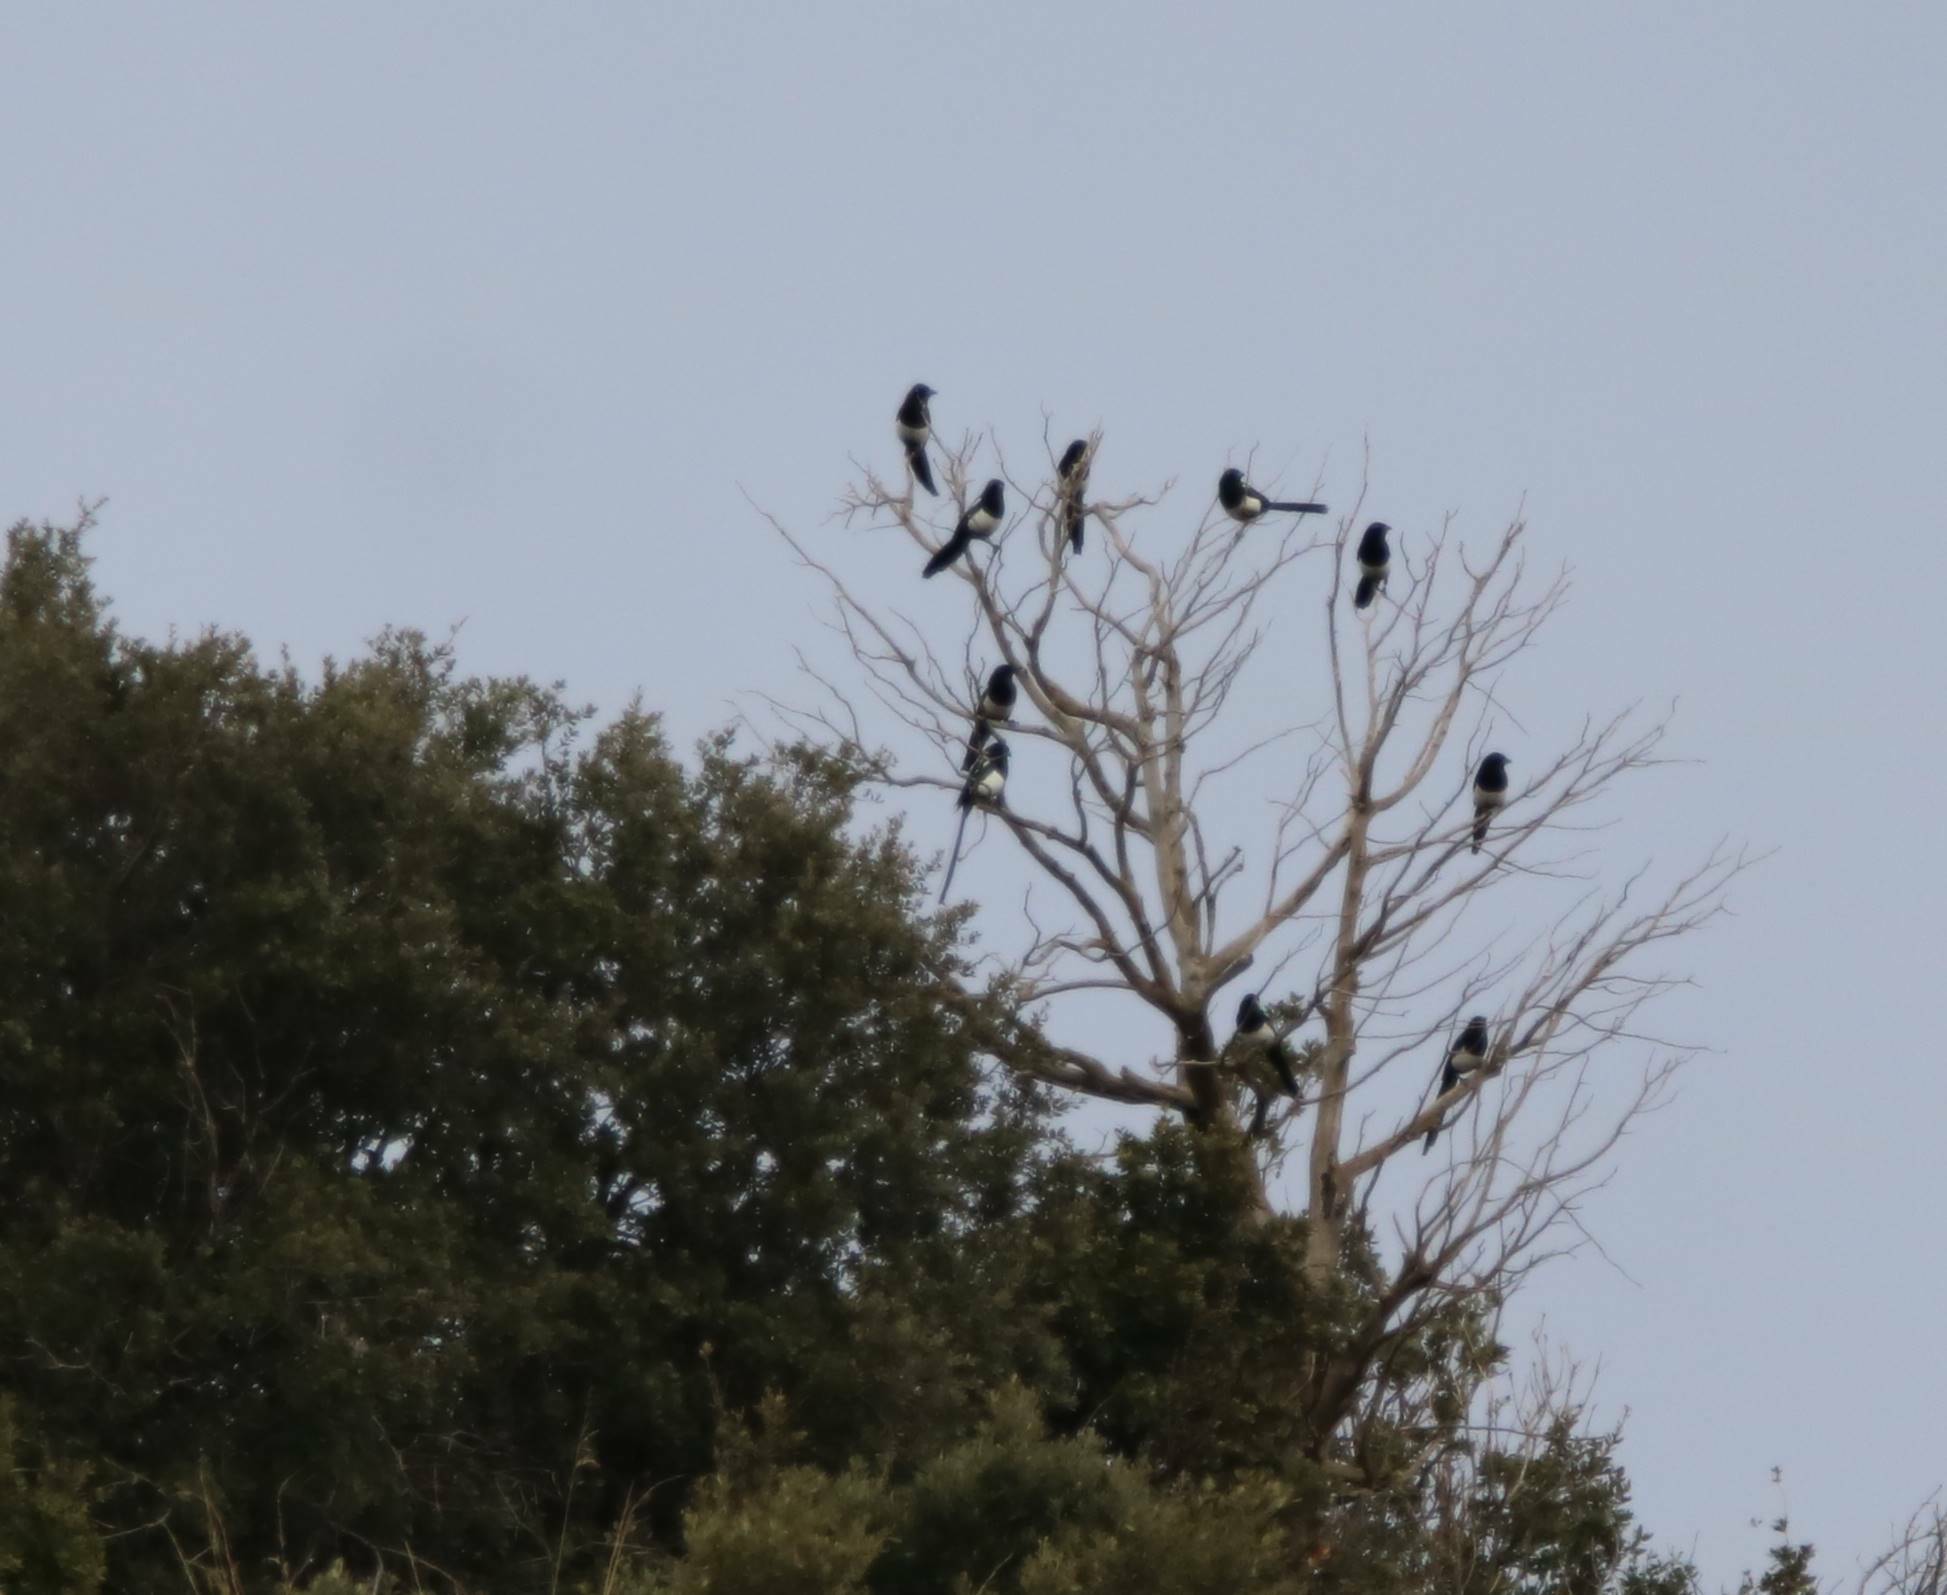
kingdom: Animalia
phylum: Chordata
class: Aves
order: Passeriformes
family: Corvidae
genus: Pica
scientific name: Pica mauritanica
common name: Maghreb magpie
